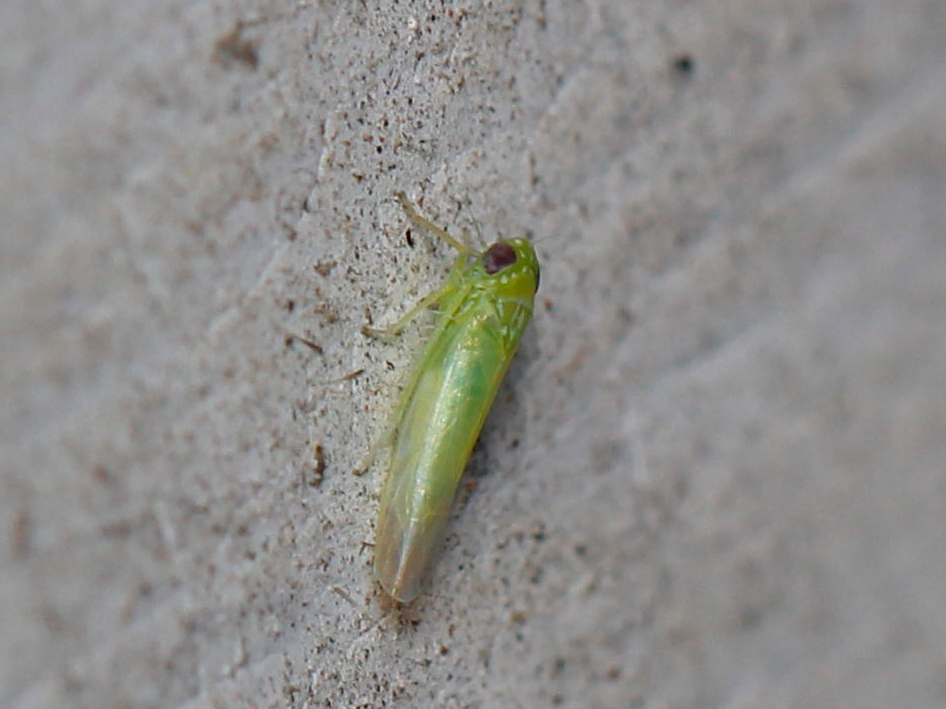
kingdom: Animalia
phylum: Arthropoda
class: Insecta
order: Hemiptera
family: Cicadellidae
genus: Empoasca
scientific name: Empoasca fabae
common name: Potato leafhopper
